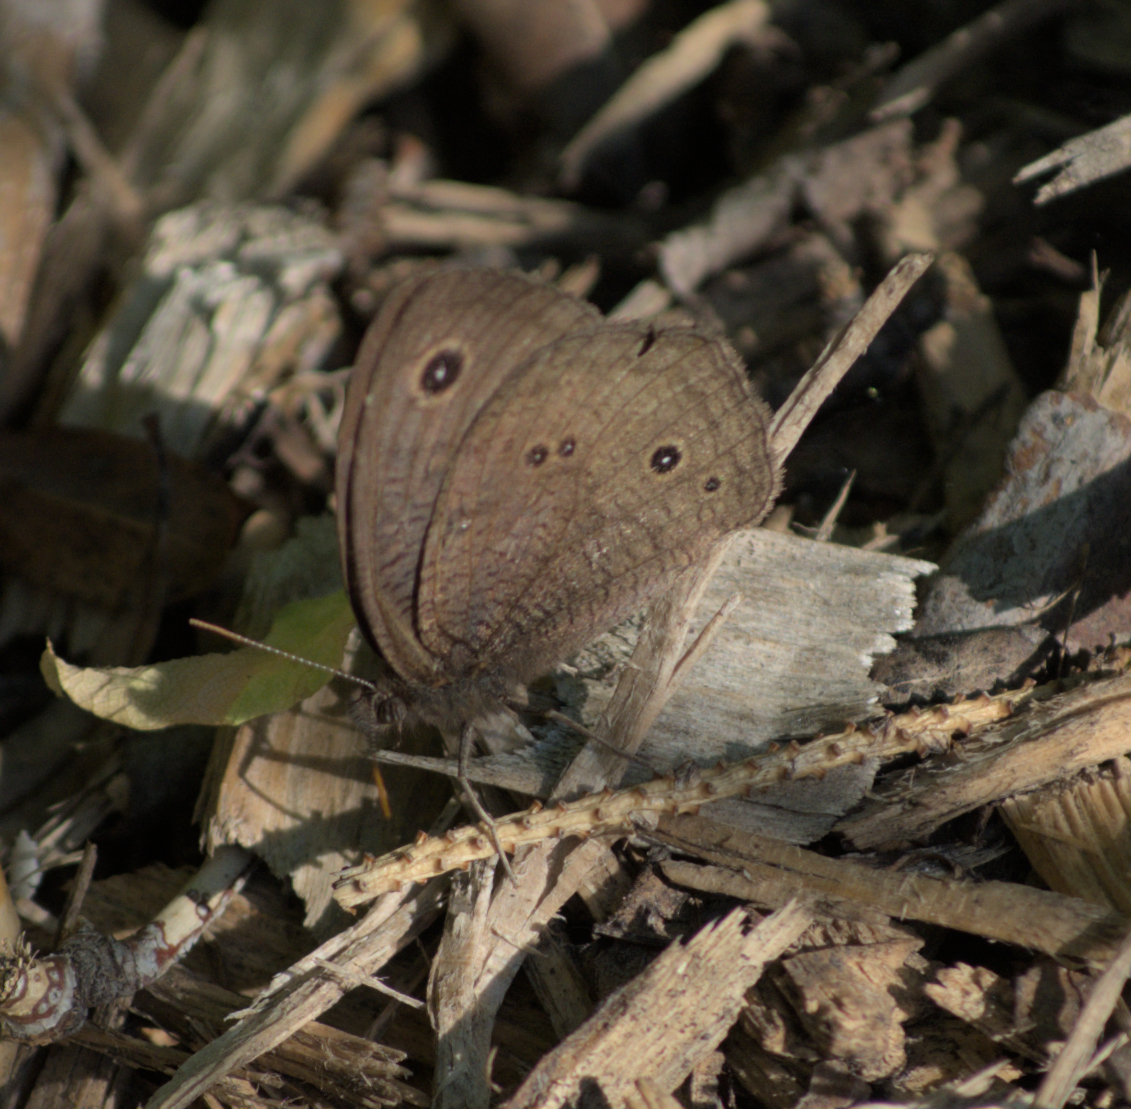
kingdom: Animalia
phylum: Arthropoda
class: Insecta
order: Lepidoptera
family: Nymphalidae
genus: Cercyonis
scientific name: Cercyonis pegala
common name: Common wood-nymph
